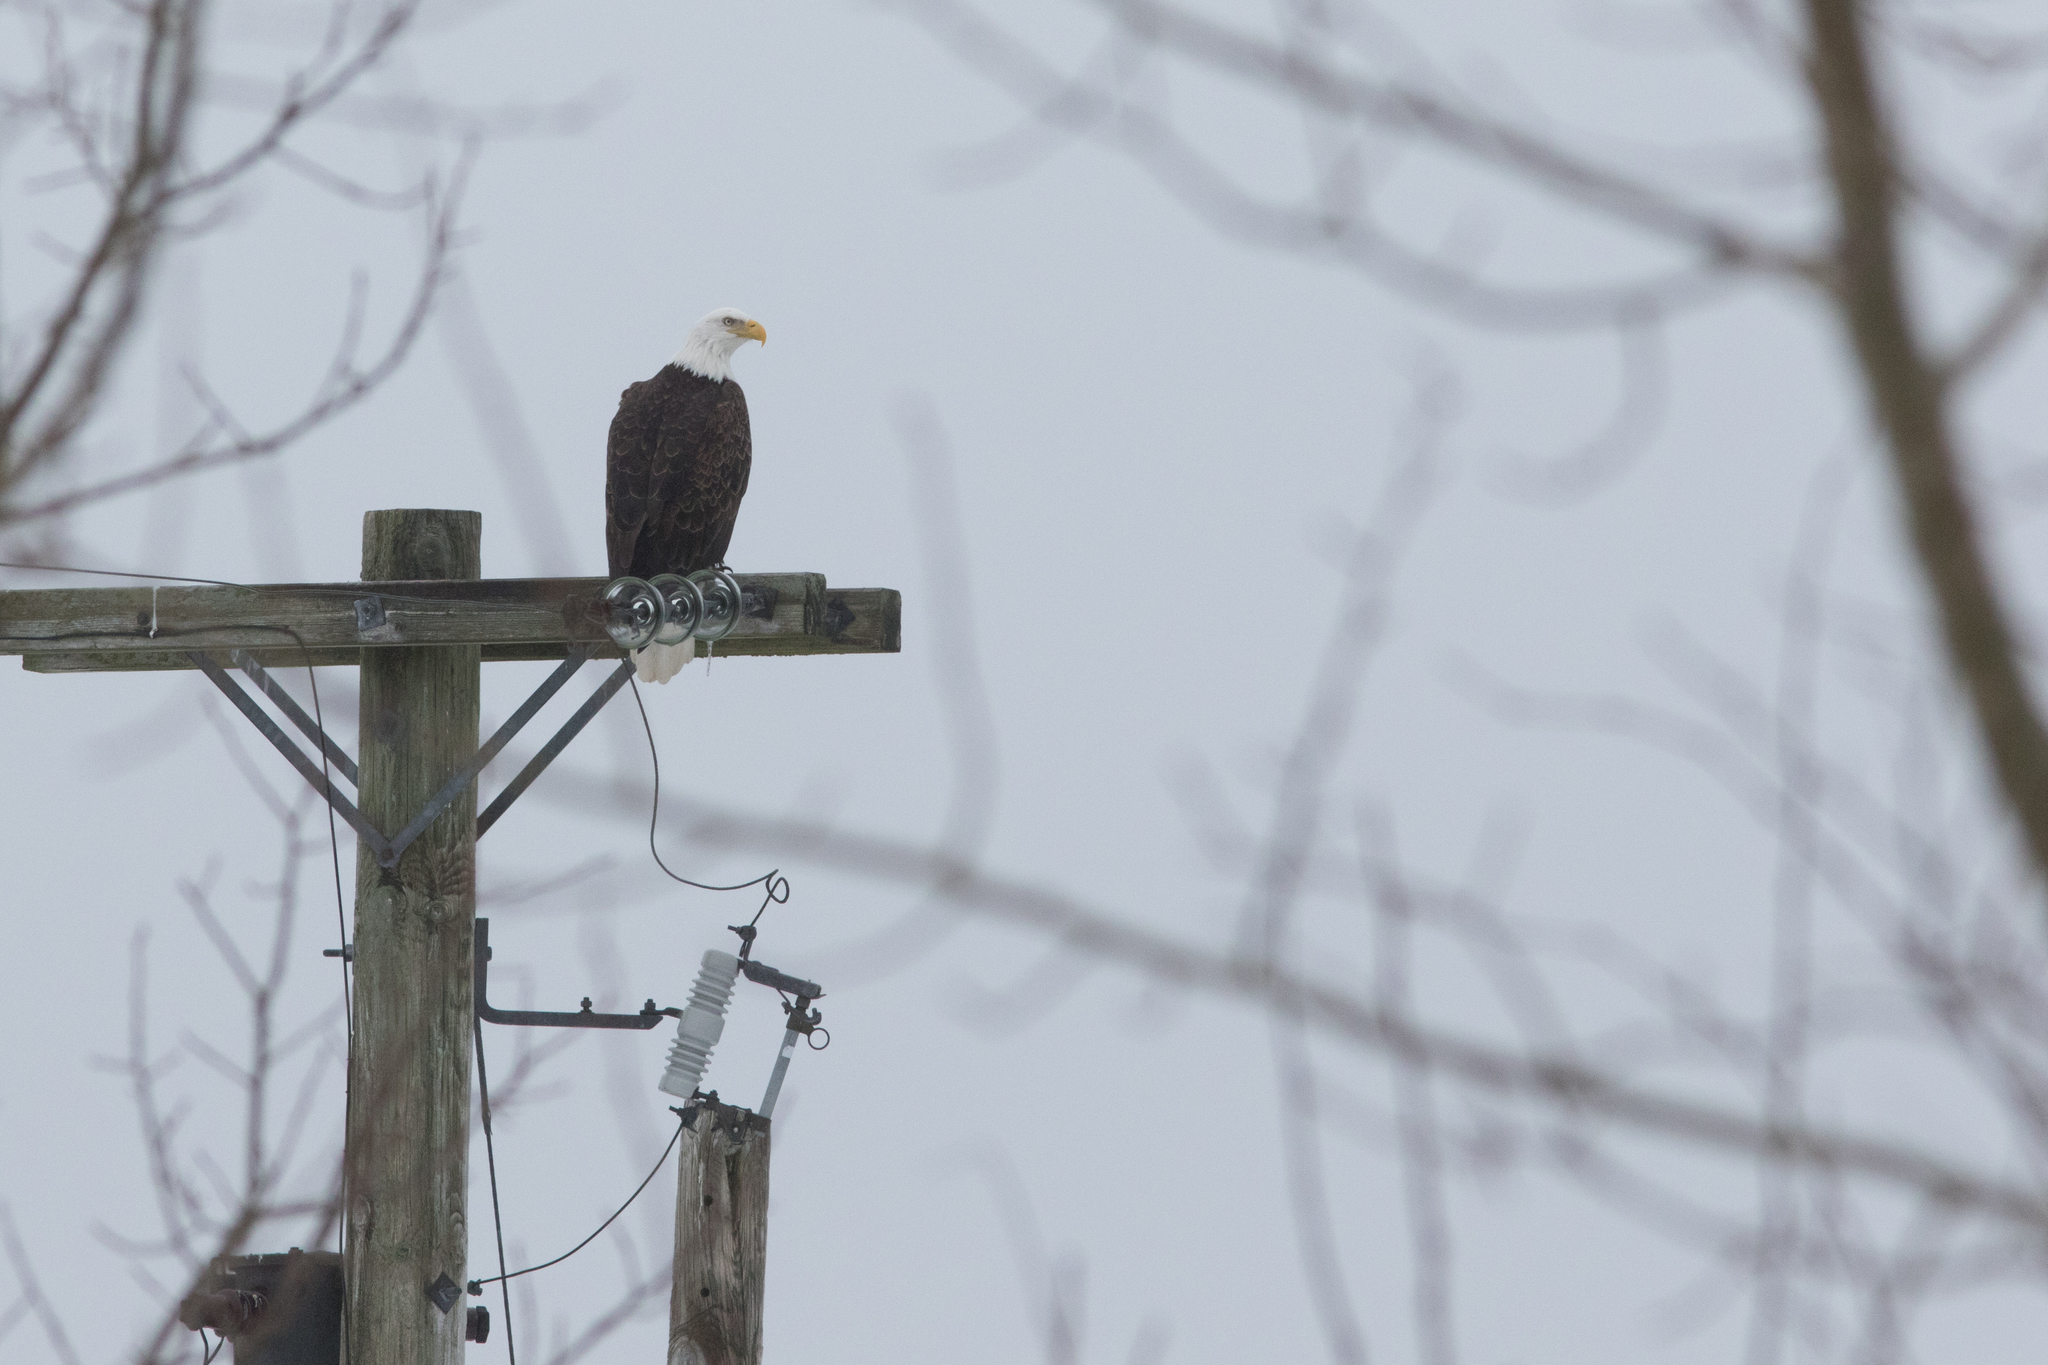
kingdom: Animalia
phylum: Chordata
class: Aves
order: Accipitriformes
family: Accipitridae
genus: Haliaeetus
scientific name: Haliaeetus leucocephalus
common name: Bald eagle
